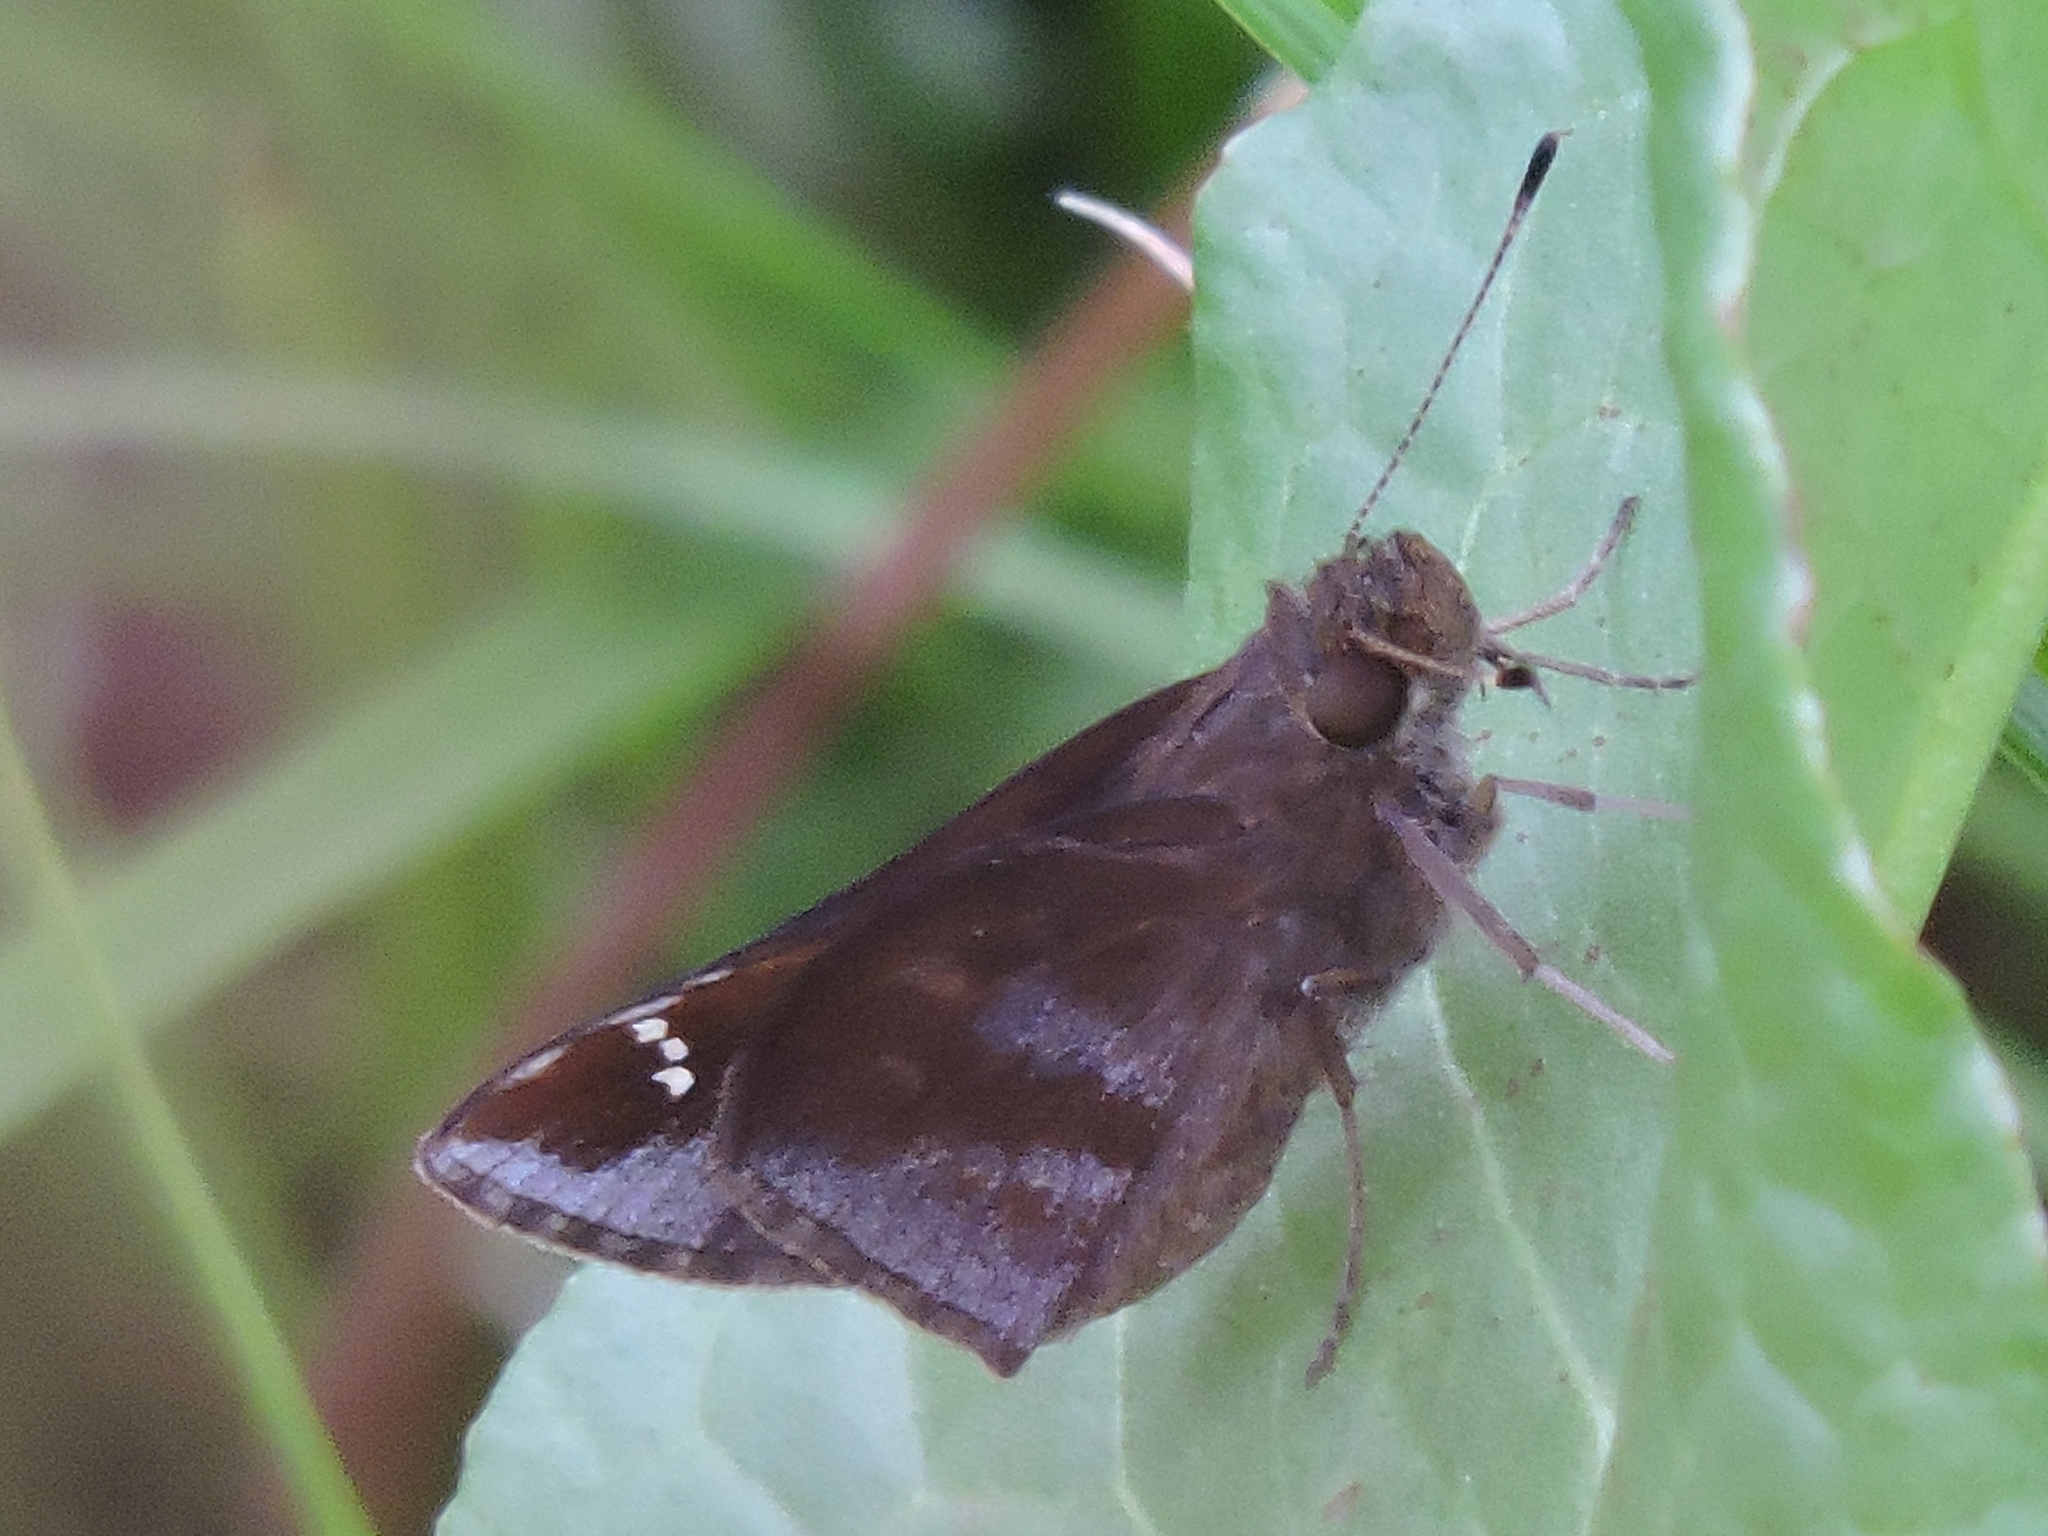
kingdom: Animalia
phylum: Arthropoda
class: Insecta
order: Lepidoptera
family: Hesperiidae
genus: Lerema
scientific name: Lerema accius
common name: Clouded skipper
